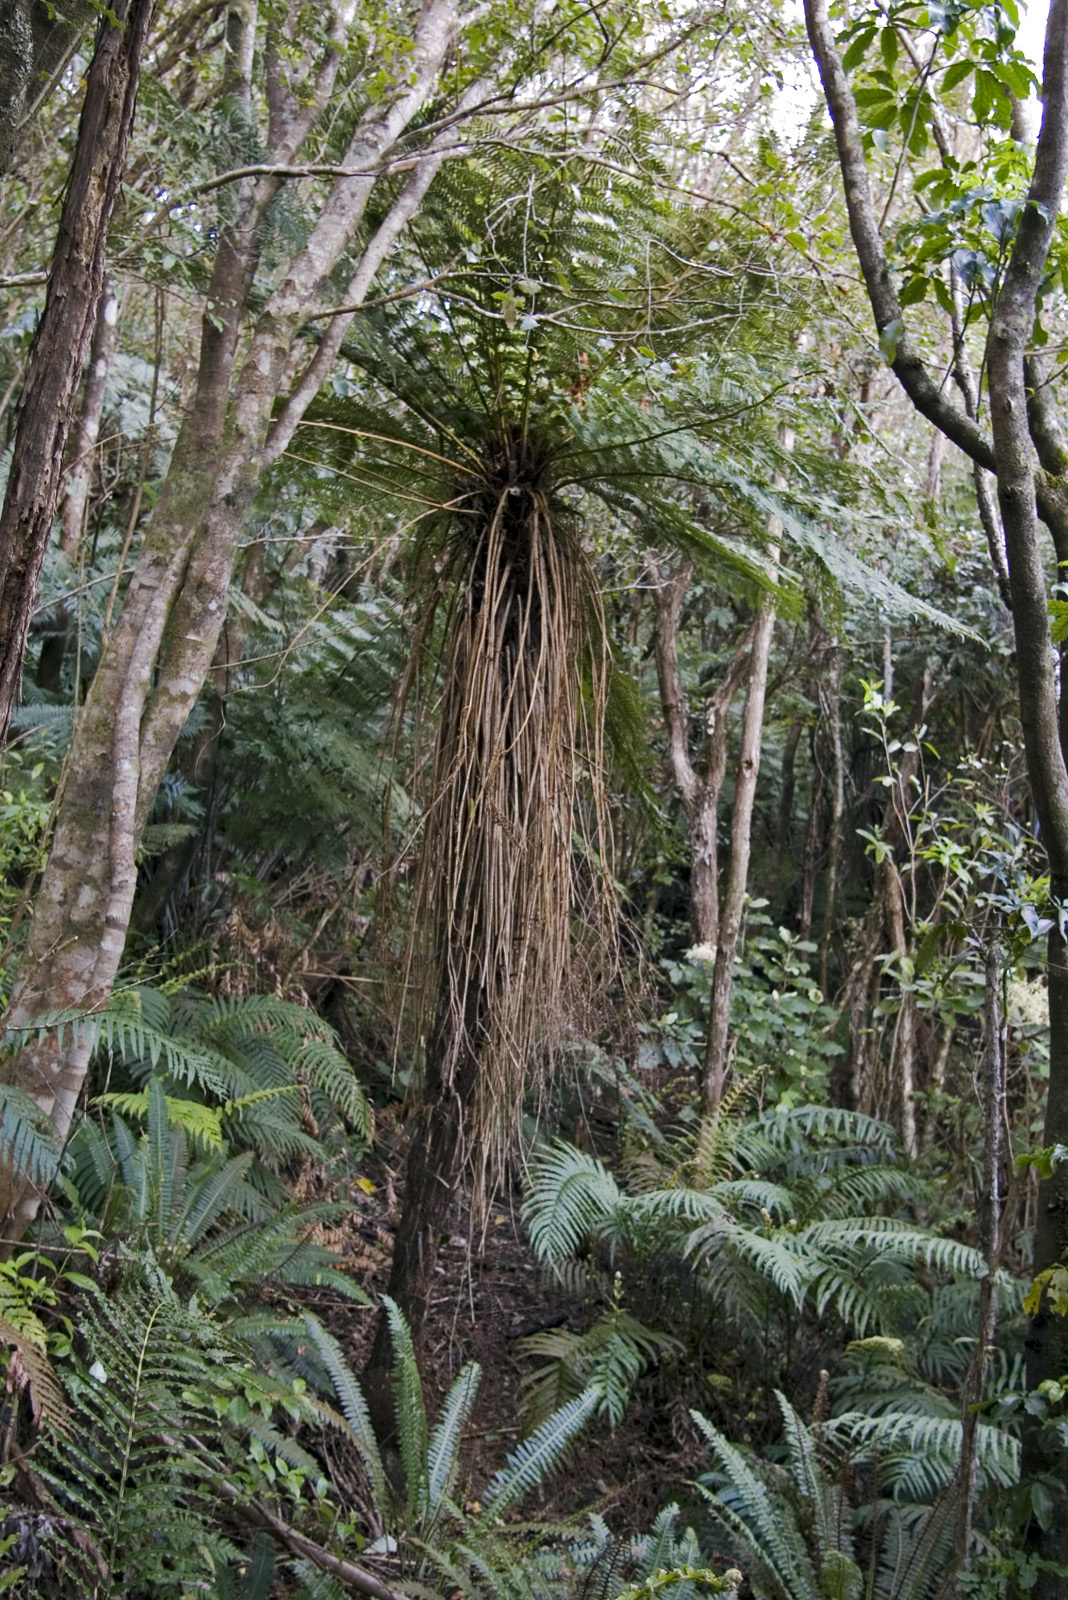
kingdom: Plantae
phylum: Tracheophyta
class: Polypodiopsida
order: Cyatheales
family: Cyatheaceae
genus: Alsophila
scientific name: Alsophila smithii
